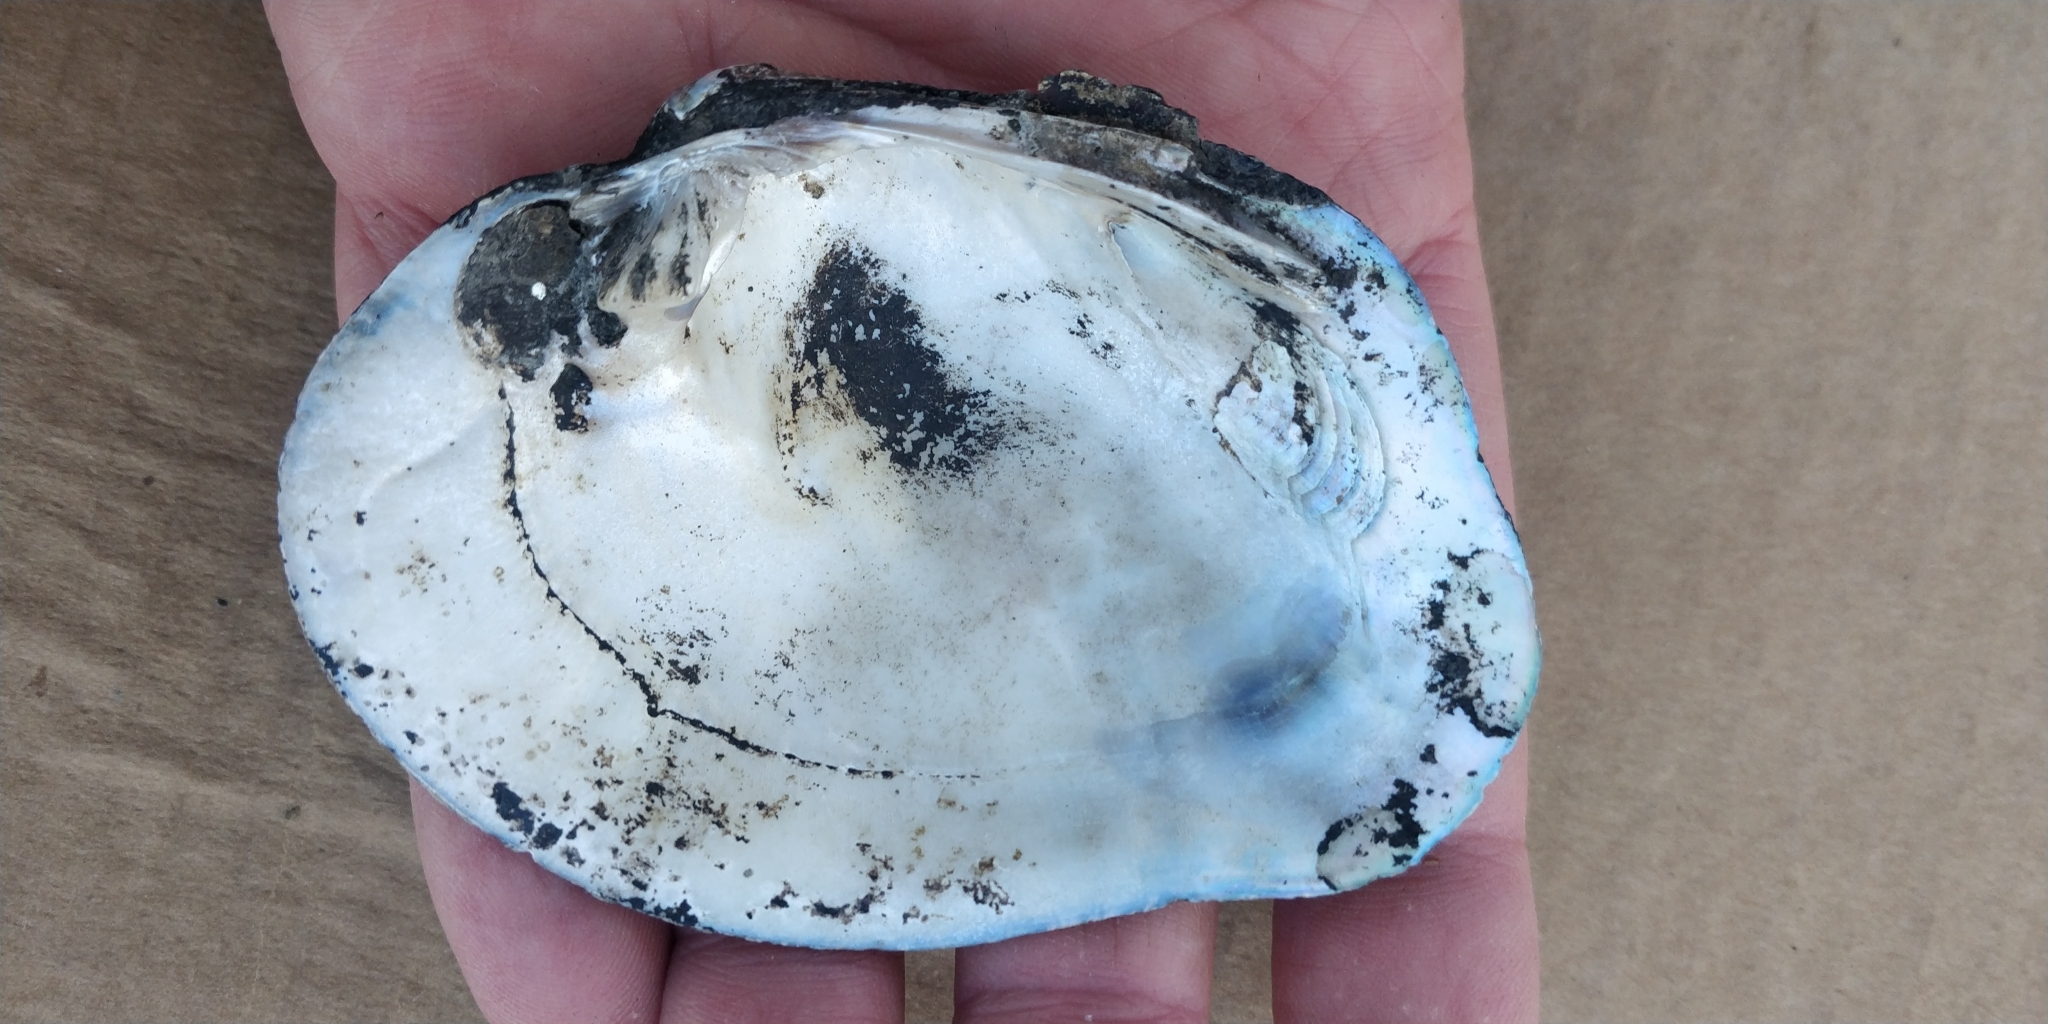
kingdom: Animalia
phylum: Mollusca
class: Bivalvia
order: Unionida
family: Unionidae
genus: Quadrula
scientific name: Quadrula quadrula
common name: Mapleleaf
